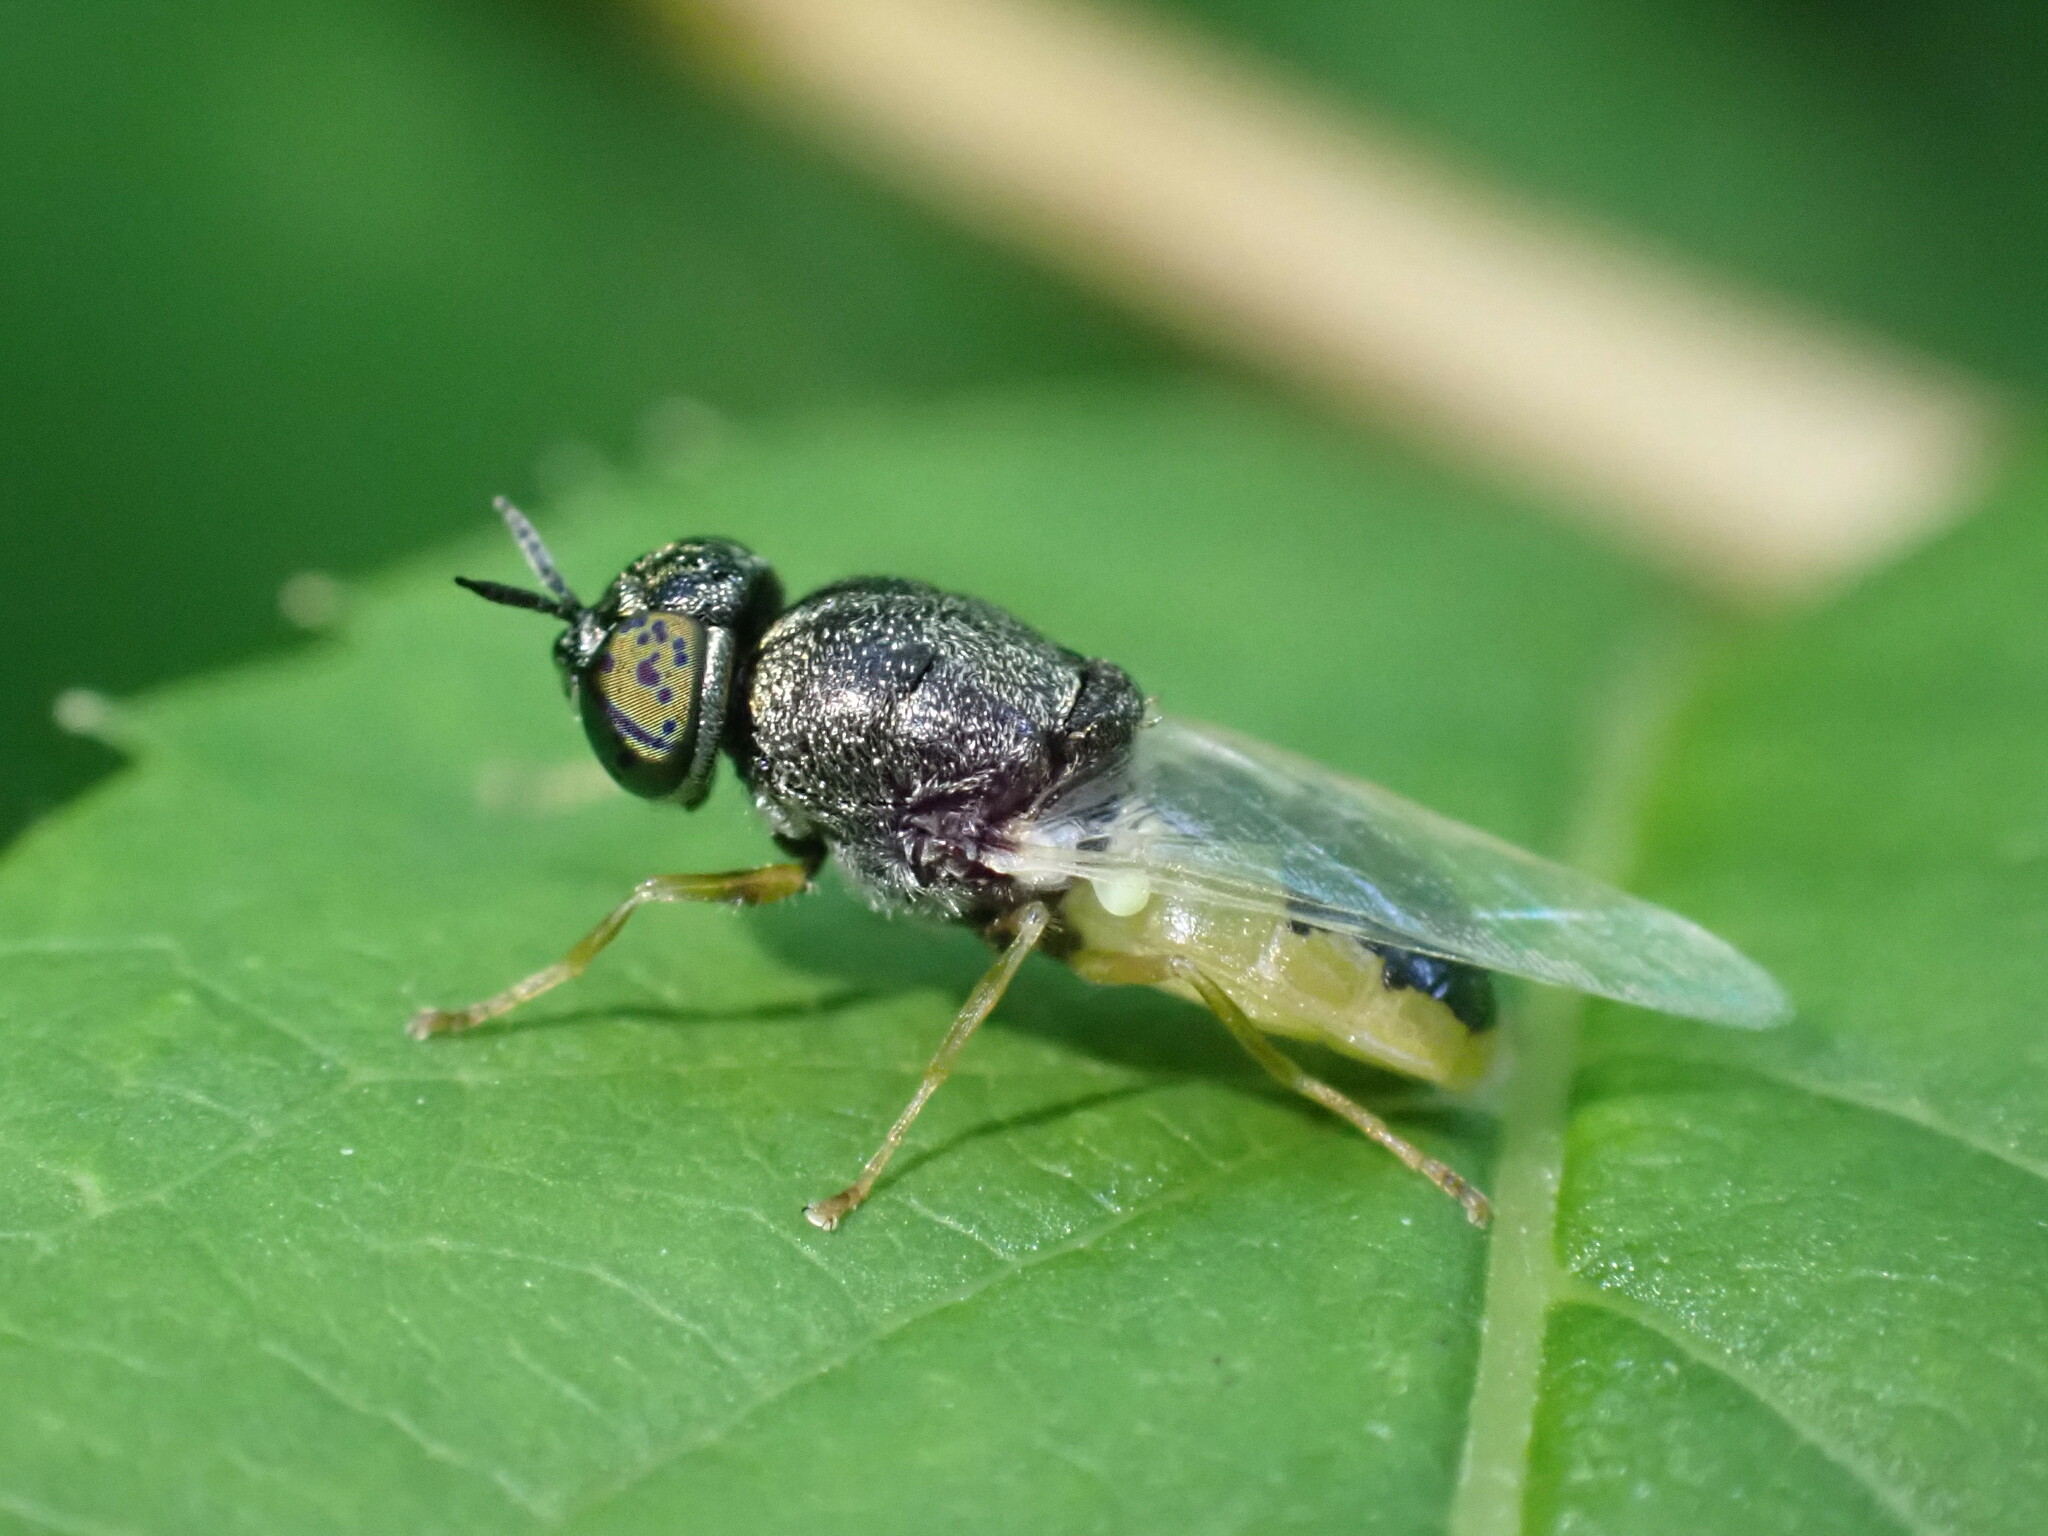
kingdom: Animalia
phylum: Arthropoda
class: Insecta
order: Diptera
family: Stratiomyidae
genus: Oplodontha
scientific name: Oplodontha viridula
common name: Common green colonel
